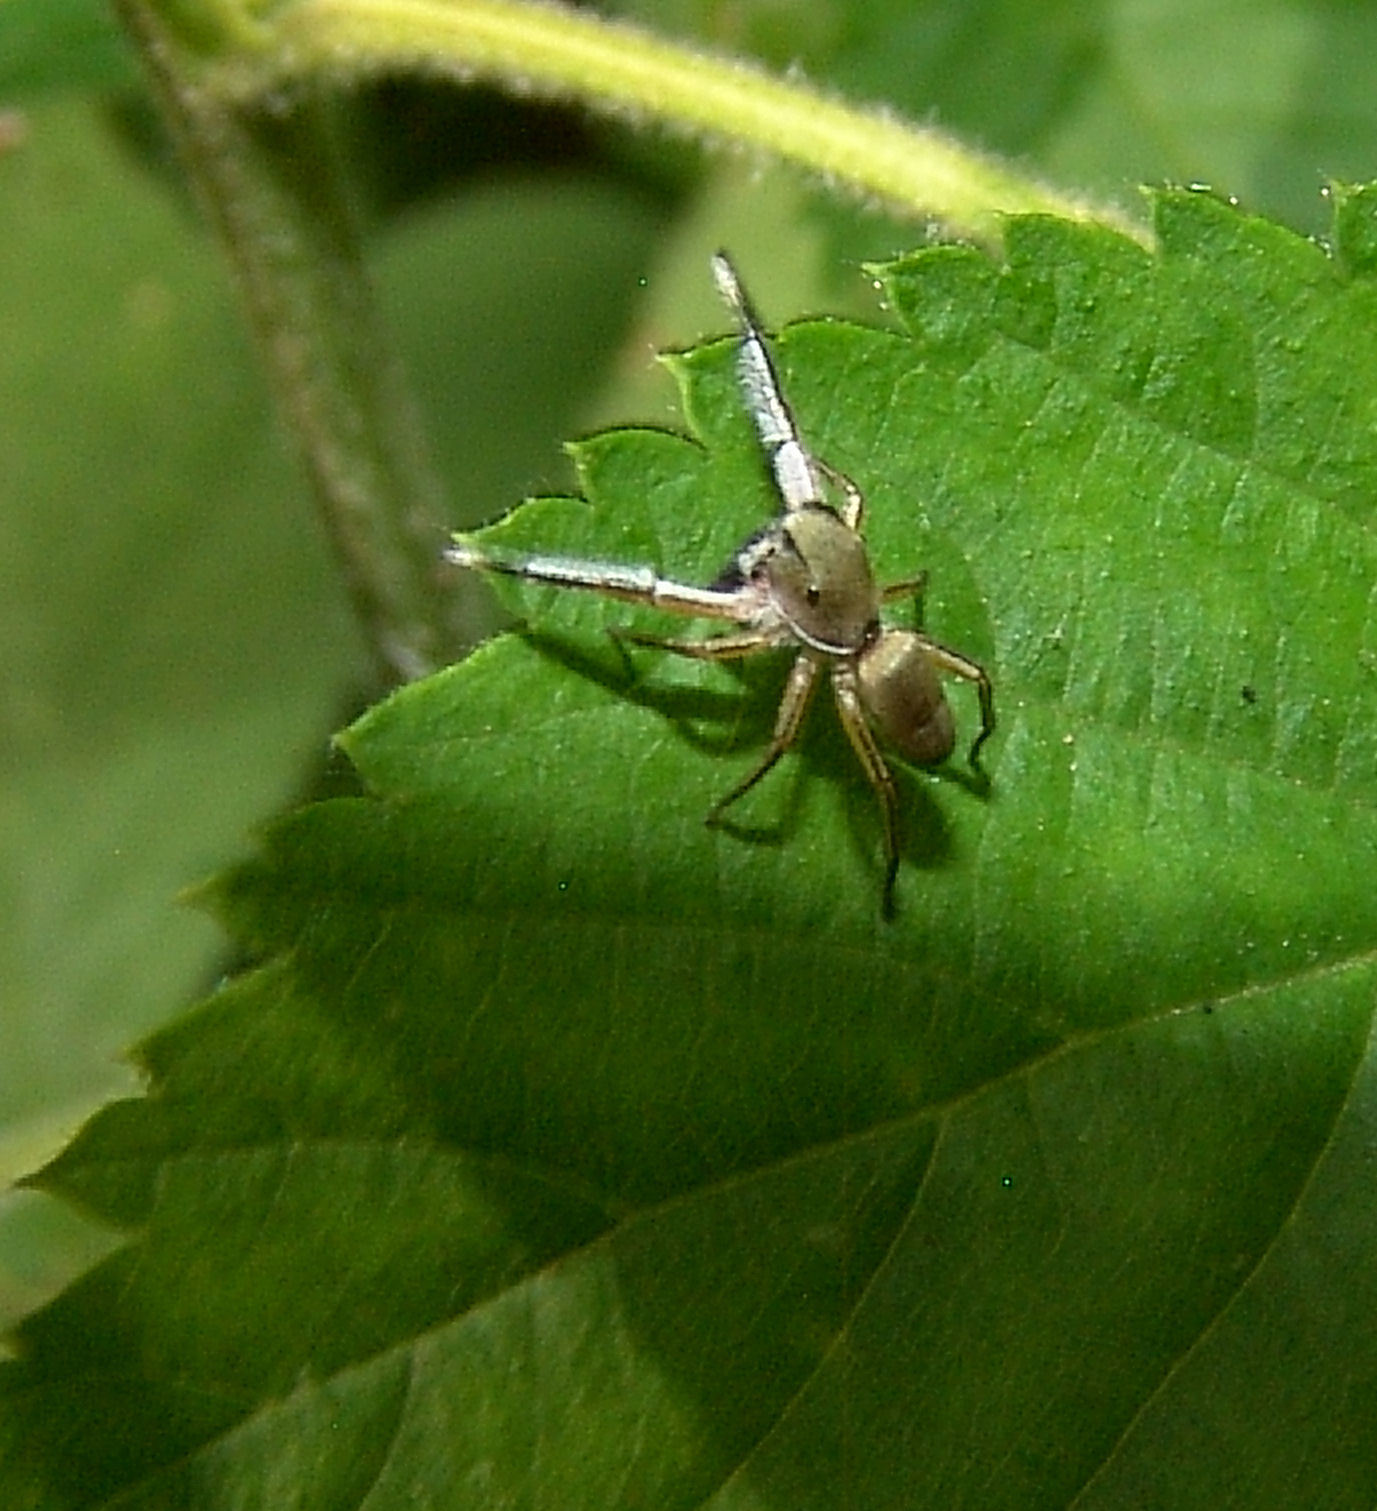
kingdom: Animalia
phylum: Arthropoda
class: Arachnida
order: Araneae
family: Salticidae
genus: Tutelina
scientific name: Tutelina similis
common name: Thick-spined jumping spider
